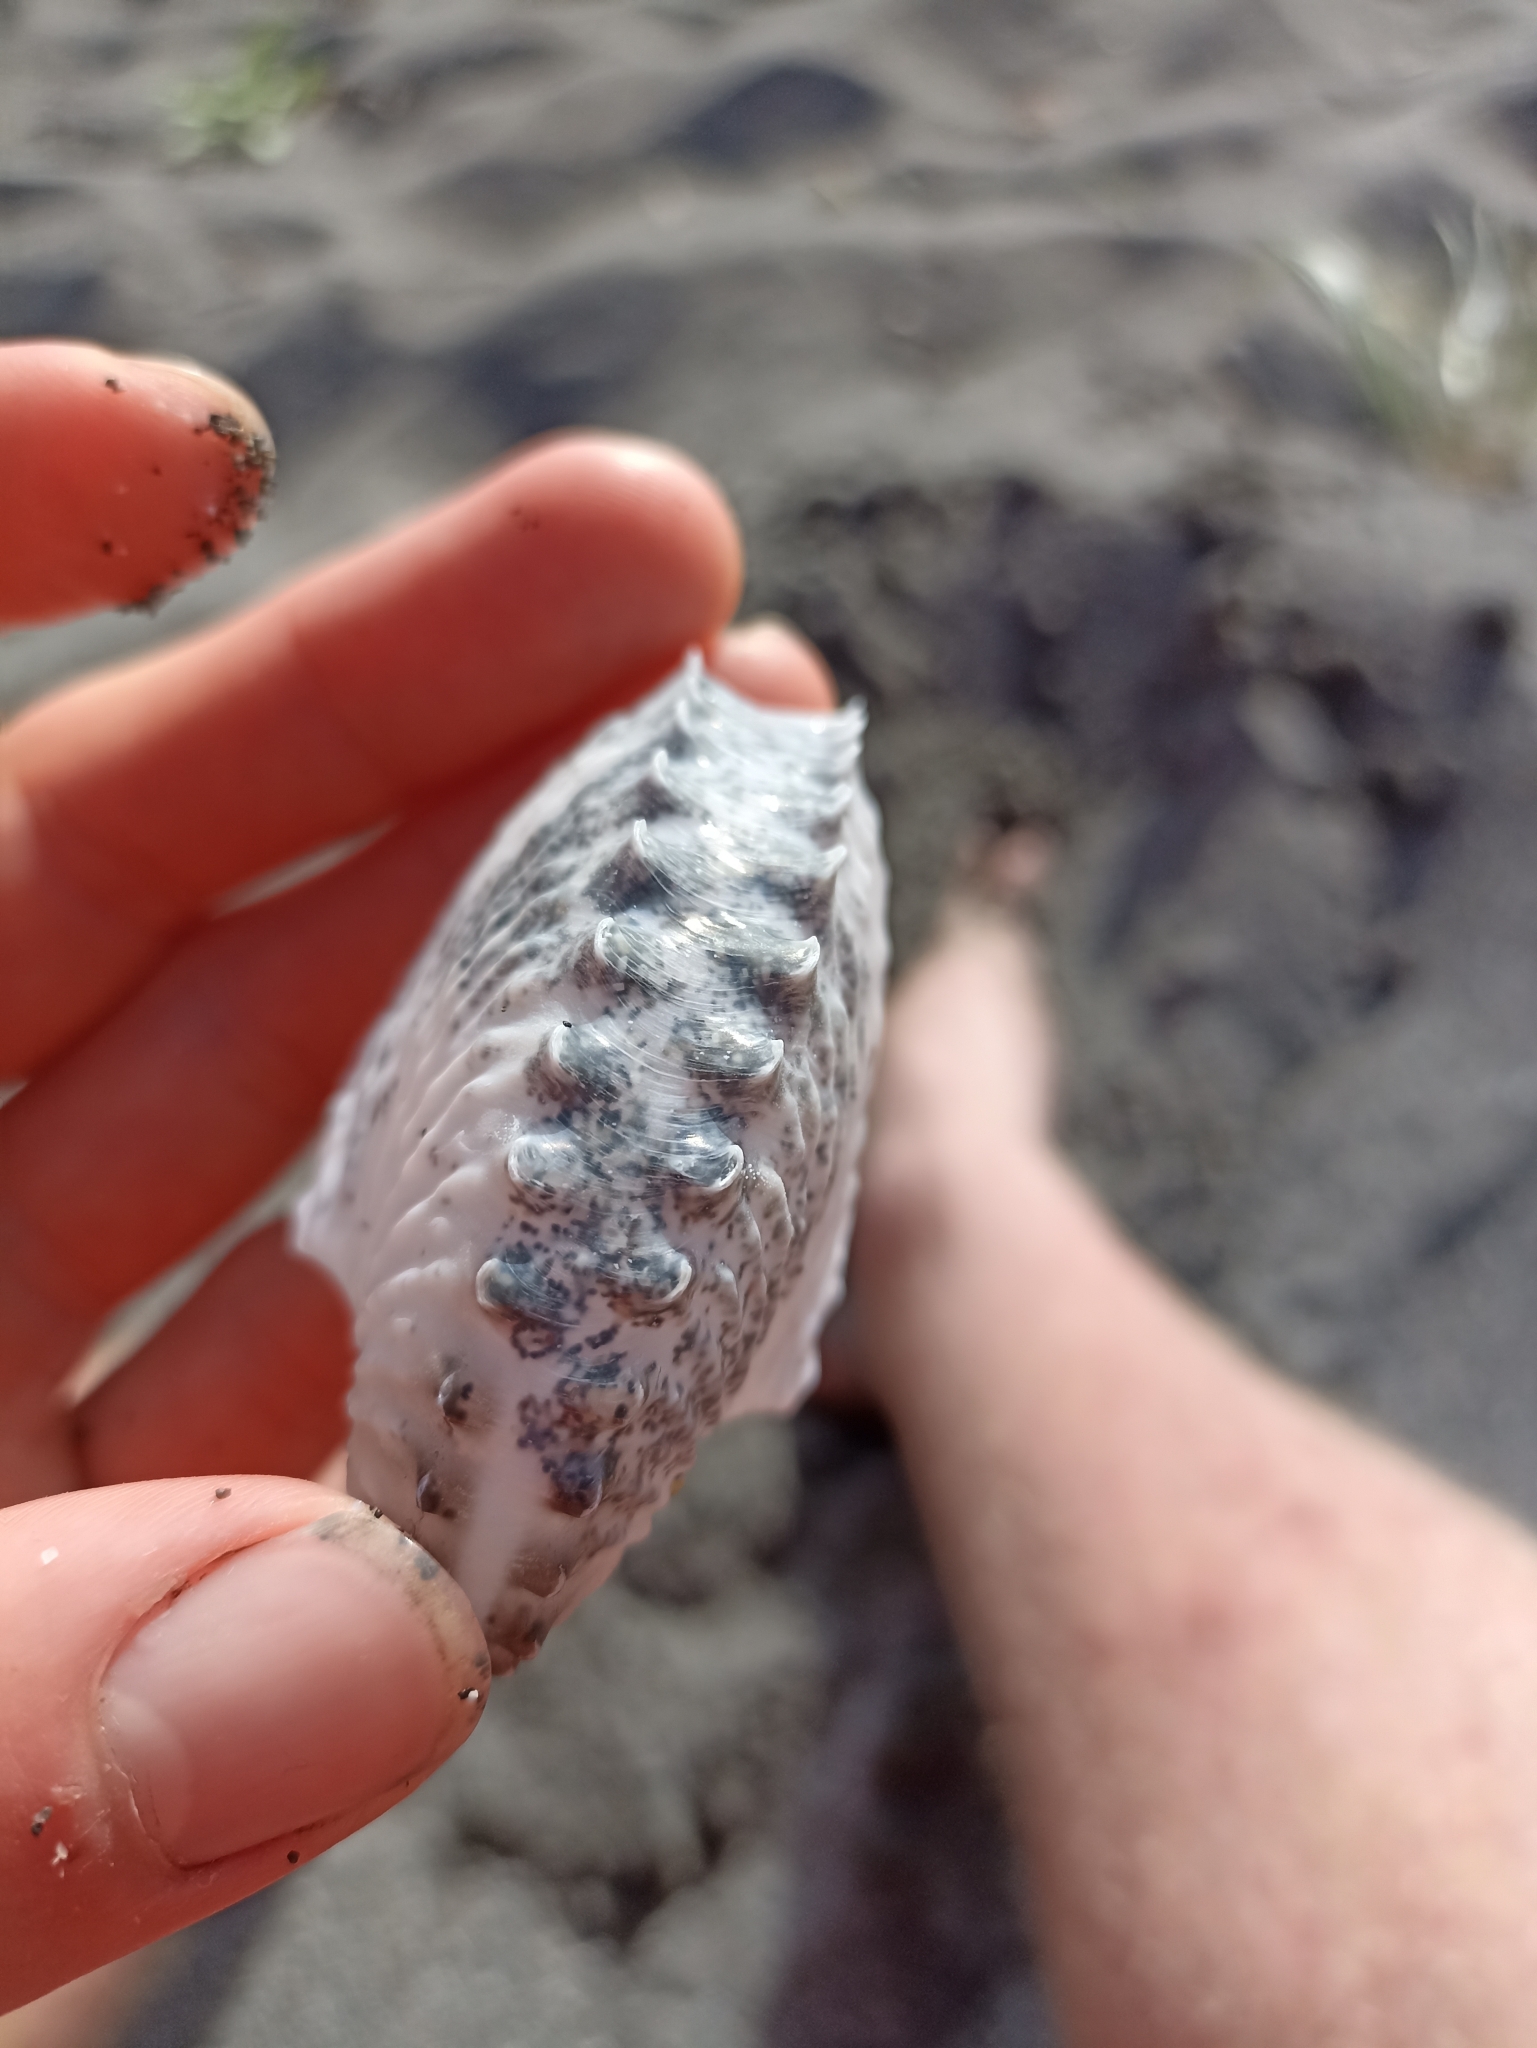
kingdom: Animalia
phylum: Mollusca
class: Cephalopoda
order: Octopoda
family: Argonautidae
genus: Argonauta
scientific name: Argonauta nodosus
